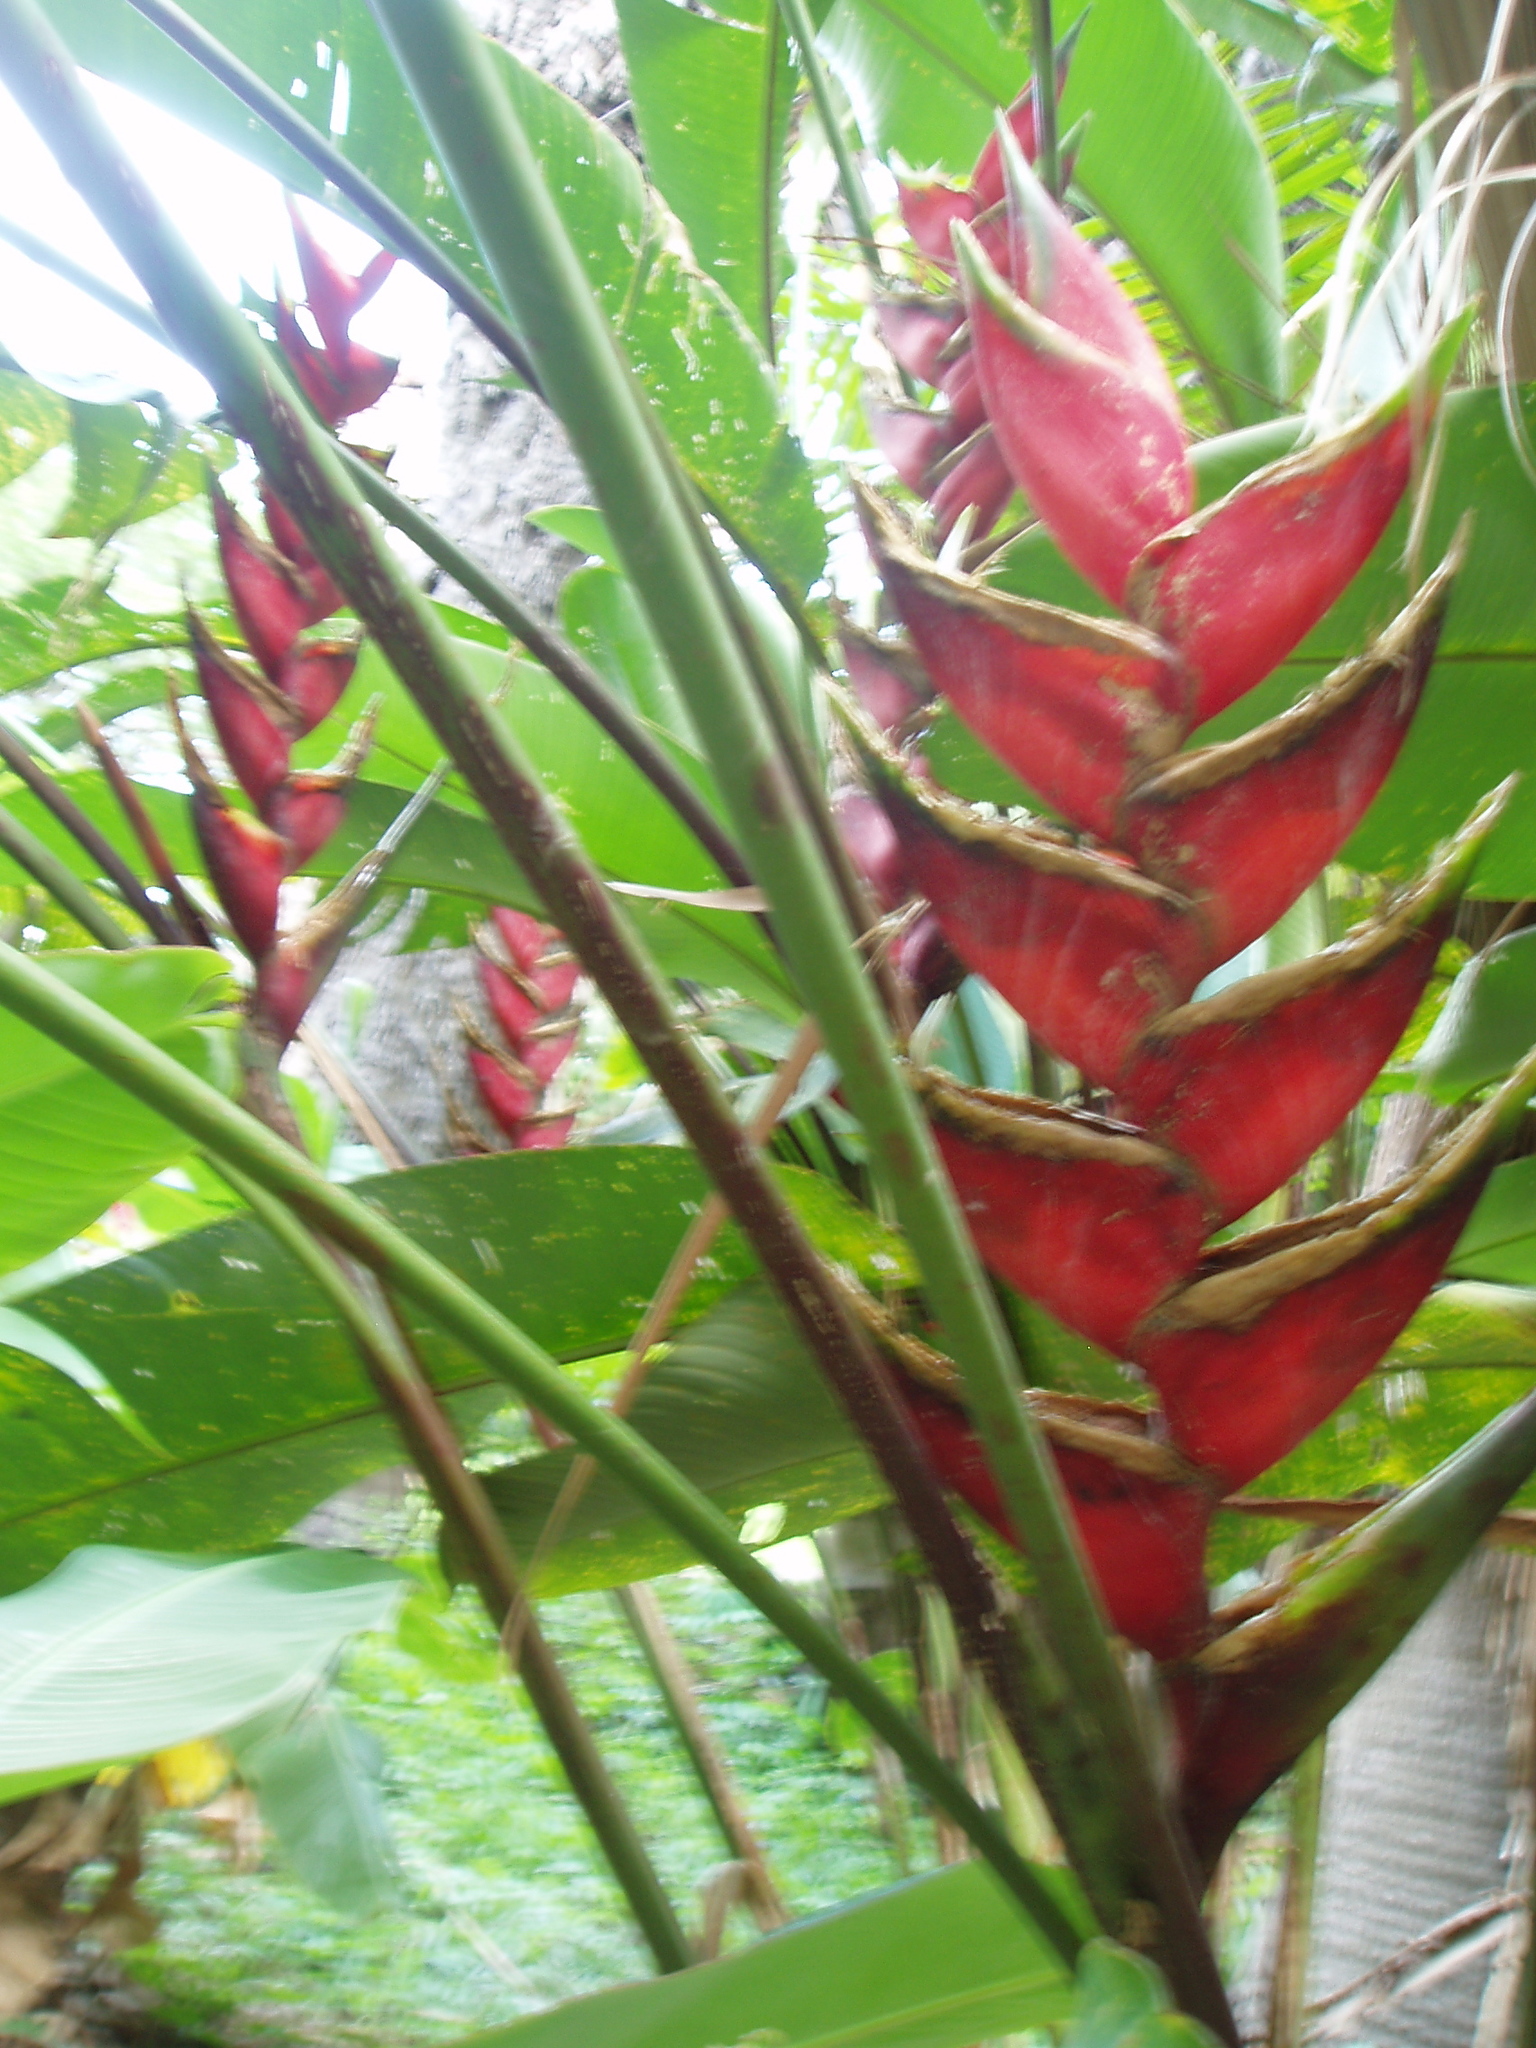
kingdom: Plantae
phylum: Tracheophyta
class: Liliopsida
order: Zingiberales
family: Heliconiaceae
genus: Heliconia
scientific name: Heliconia bihai
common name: Macaw flower
